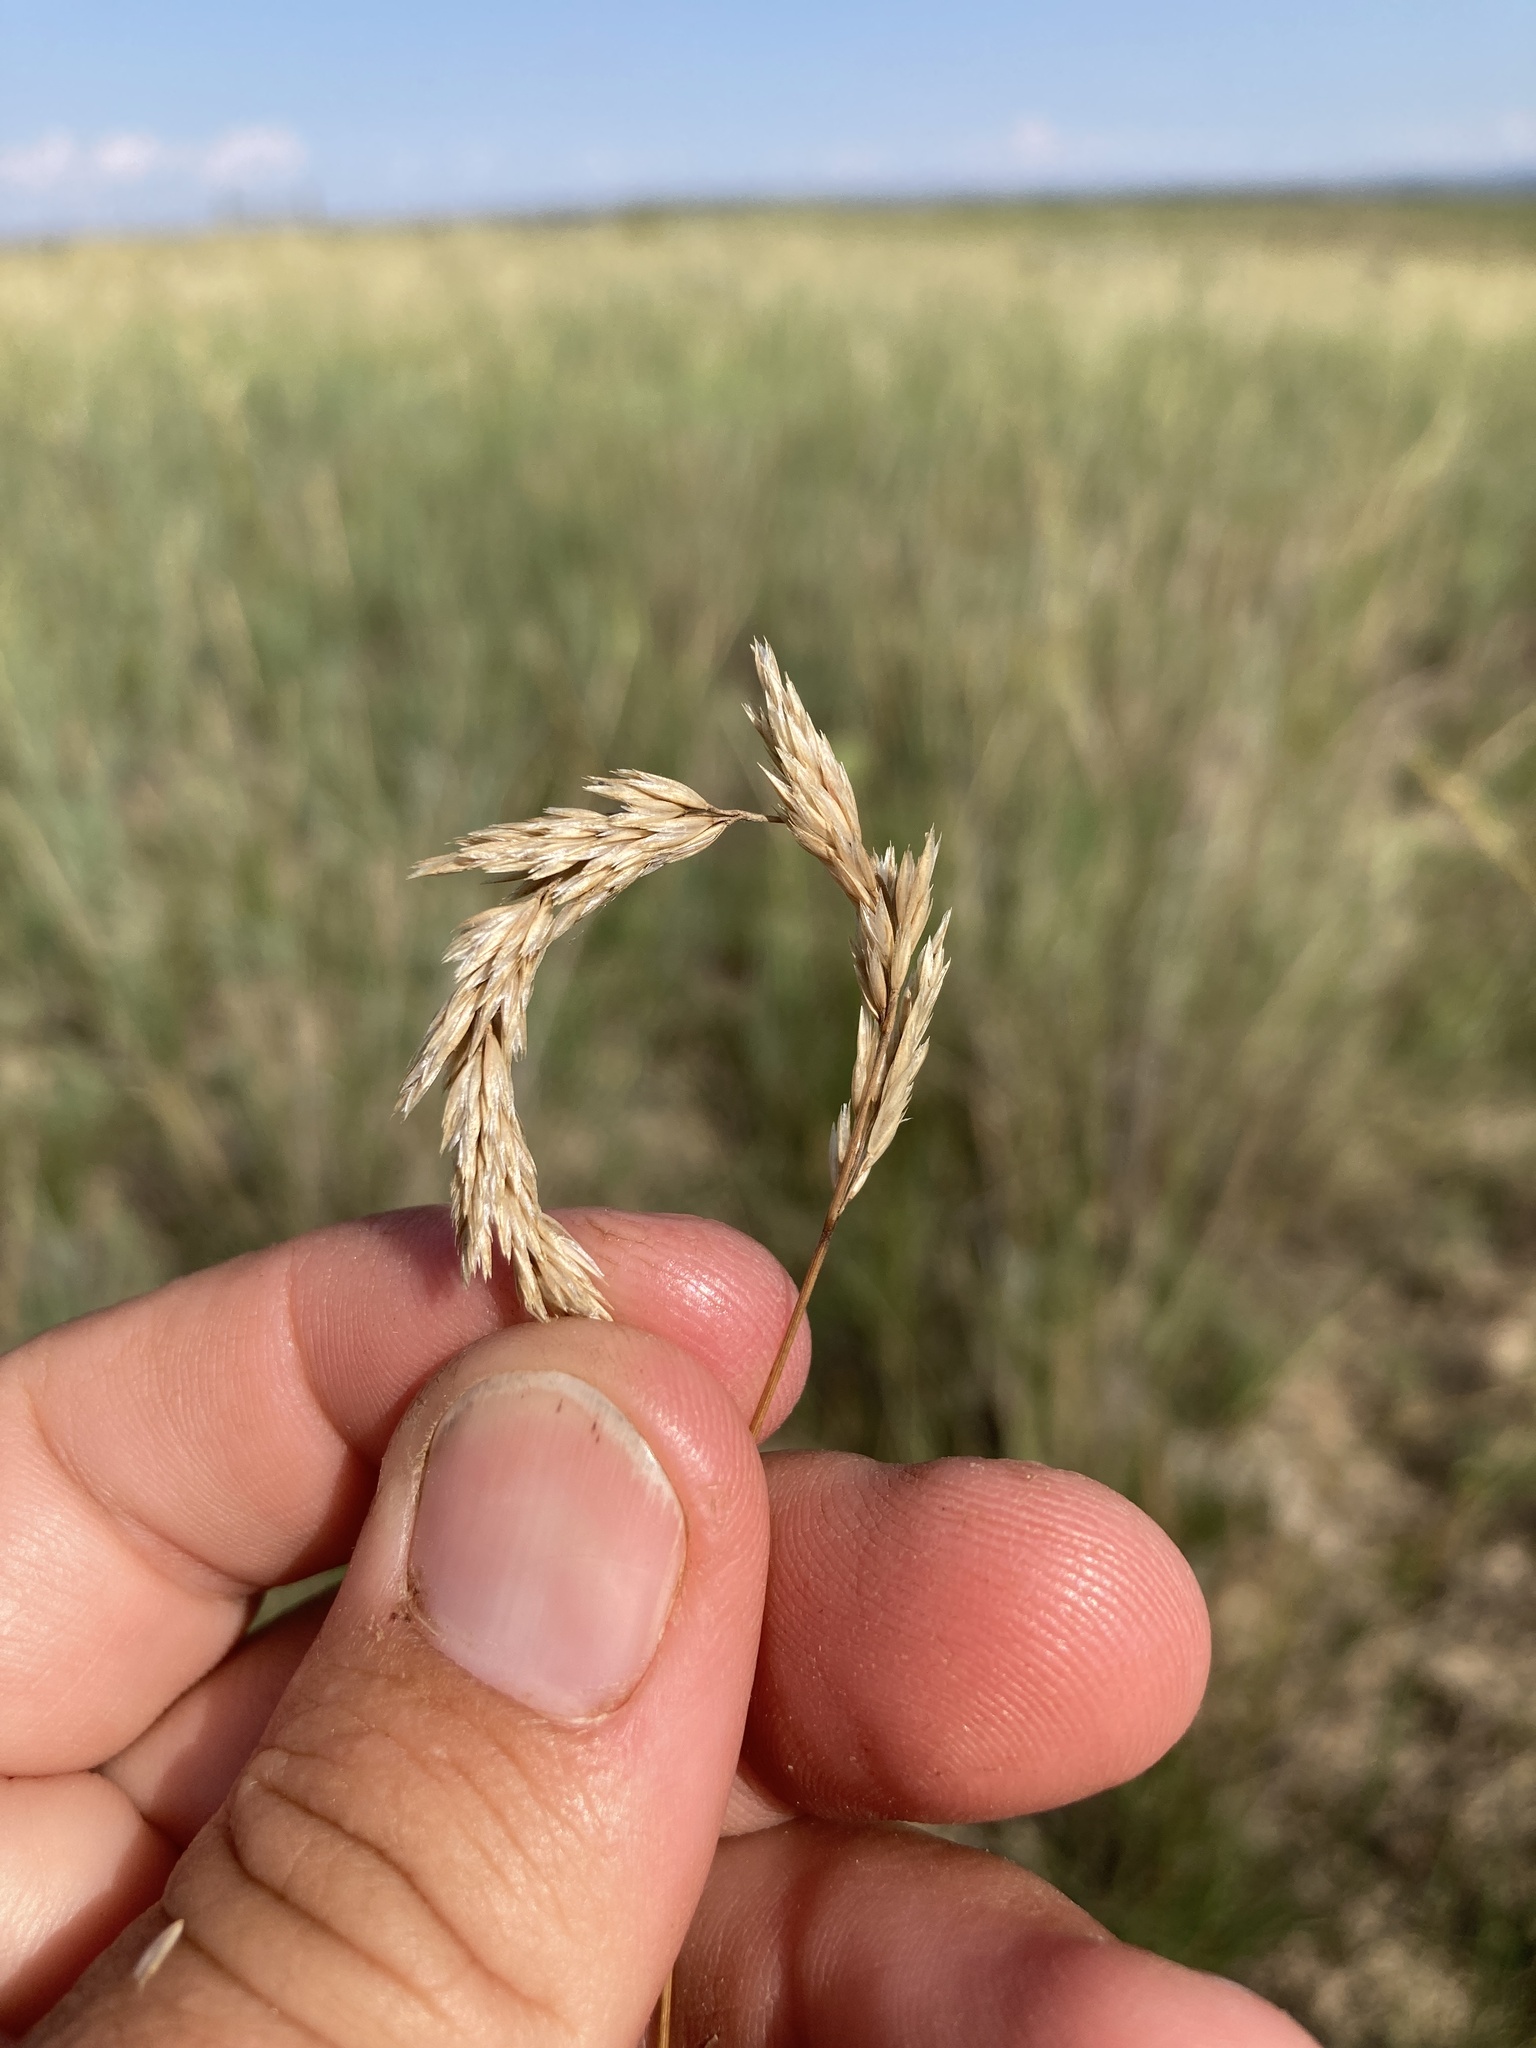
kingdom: Plantae
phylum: Tracheophyta
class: Liliopsida
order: Poales
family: Poaceae
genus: Koeleria
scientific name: Koeleria macrantha
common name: Crested hair-grass
